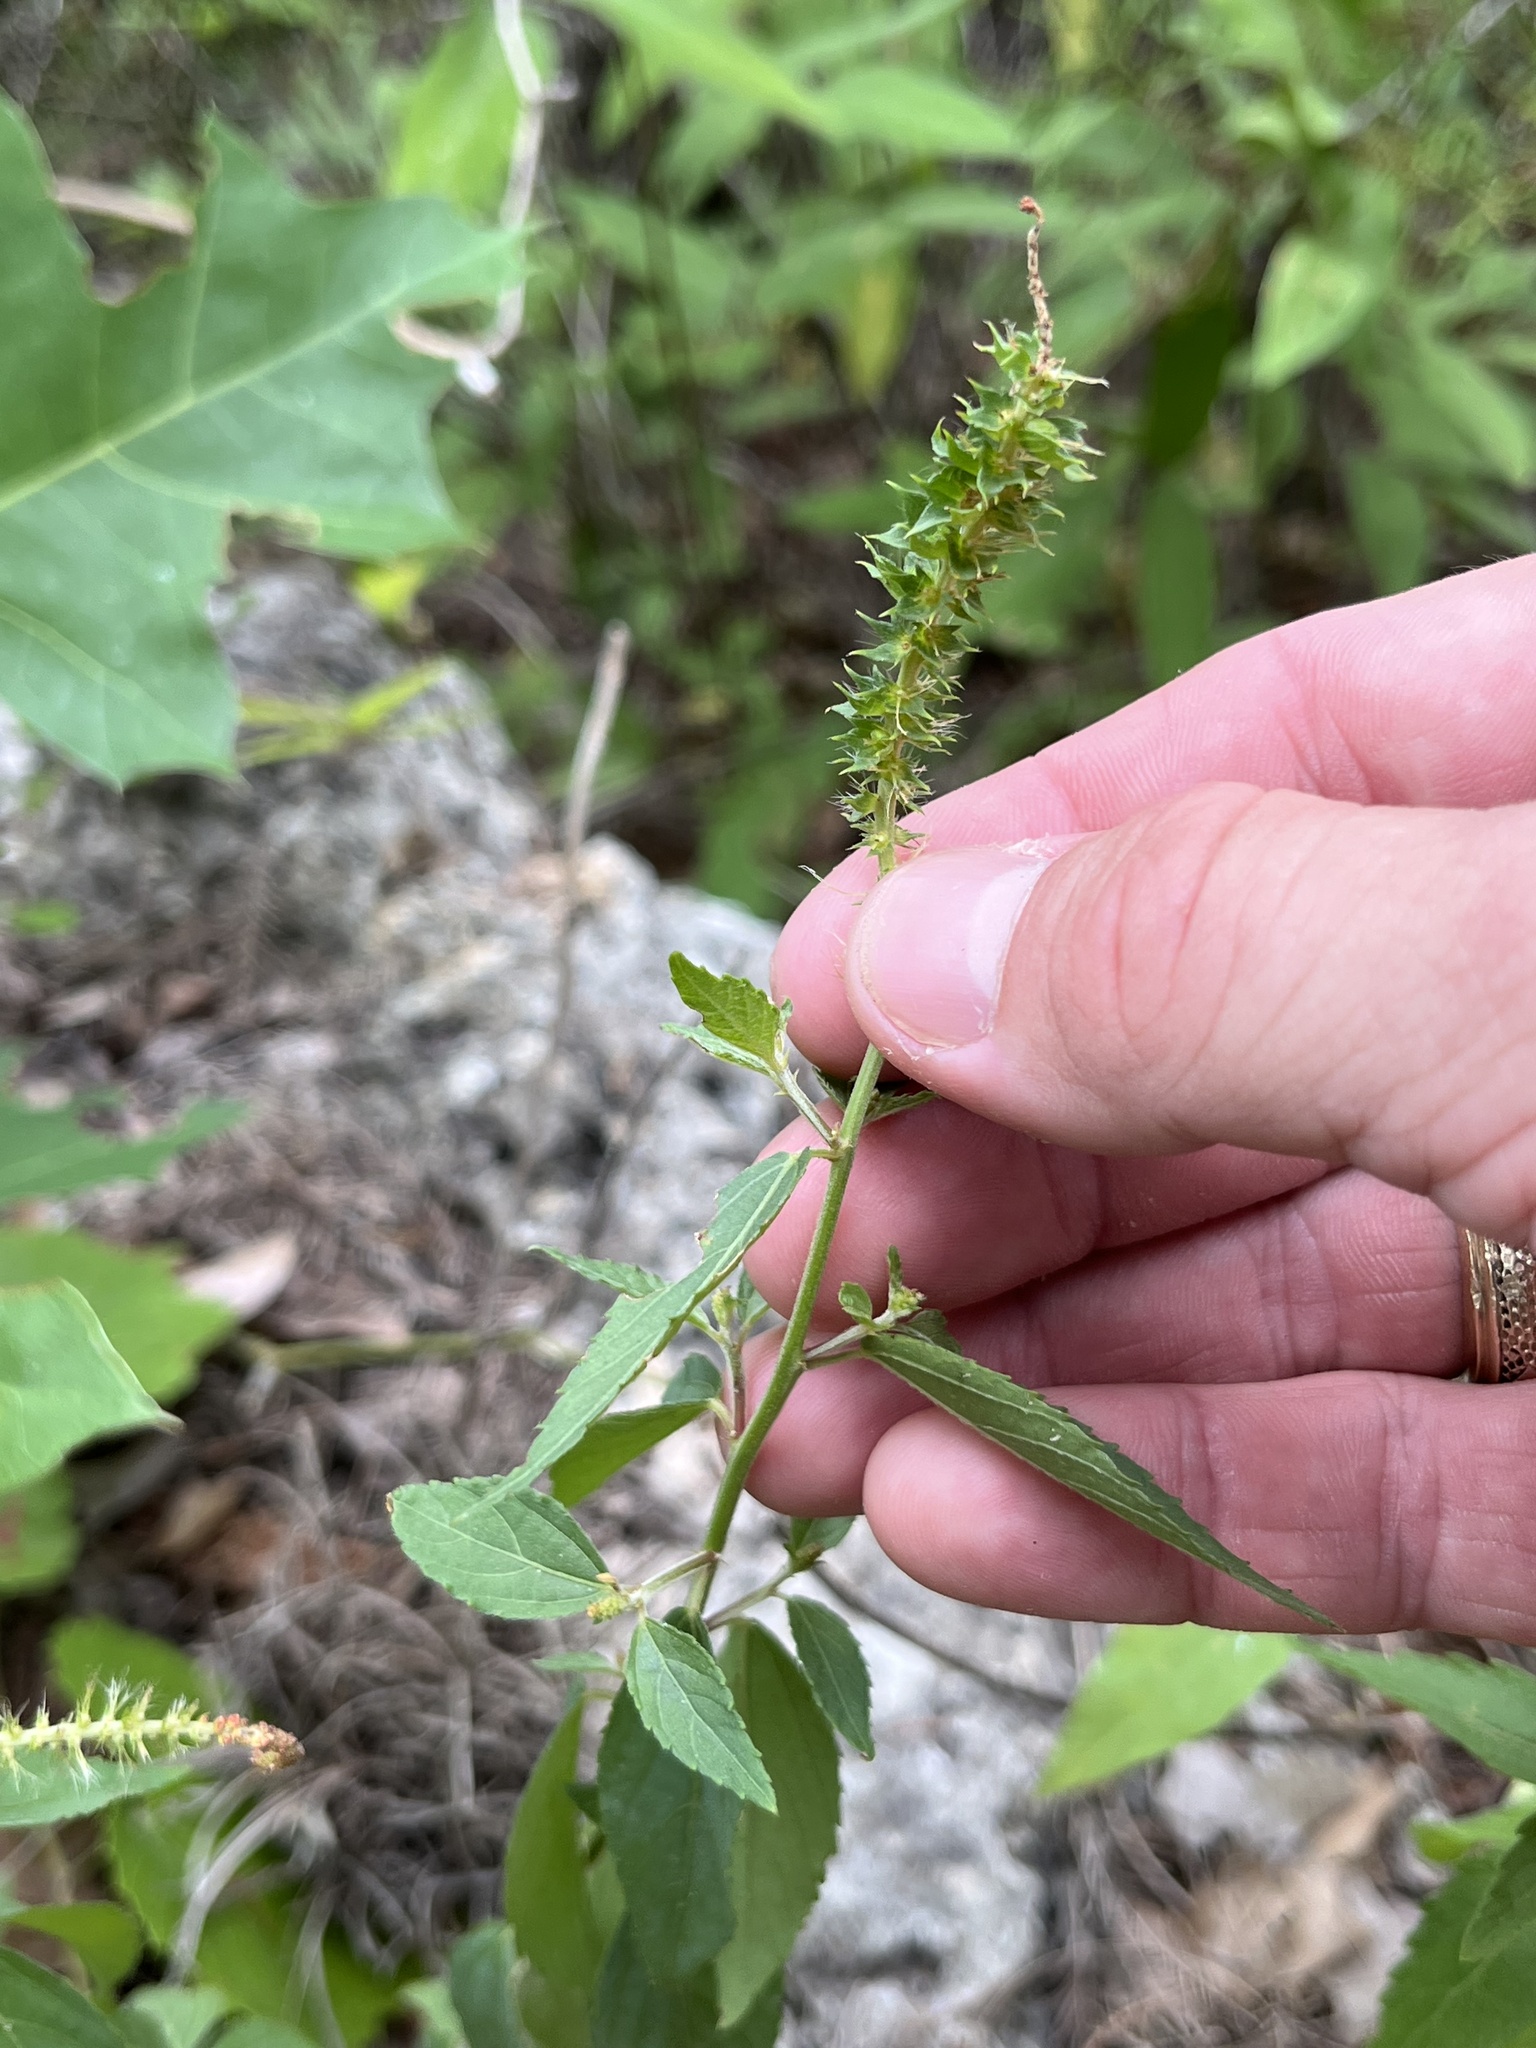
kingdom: Plantae
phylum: Tracheophyta
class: Magnoliopsida
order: Malpighiales
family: Euphorbiaceae
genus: Acalypha
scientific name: Acalypha phleoides
